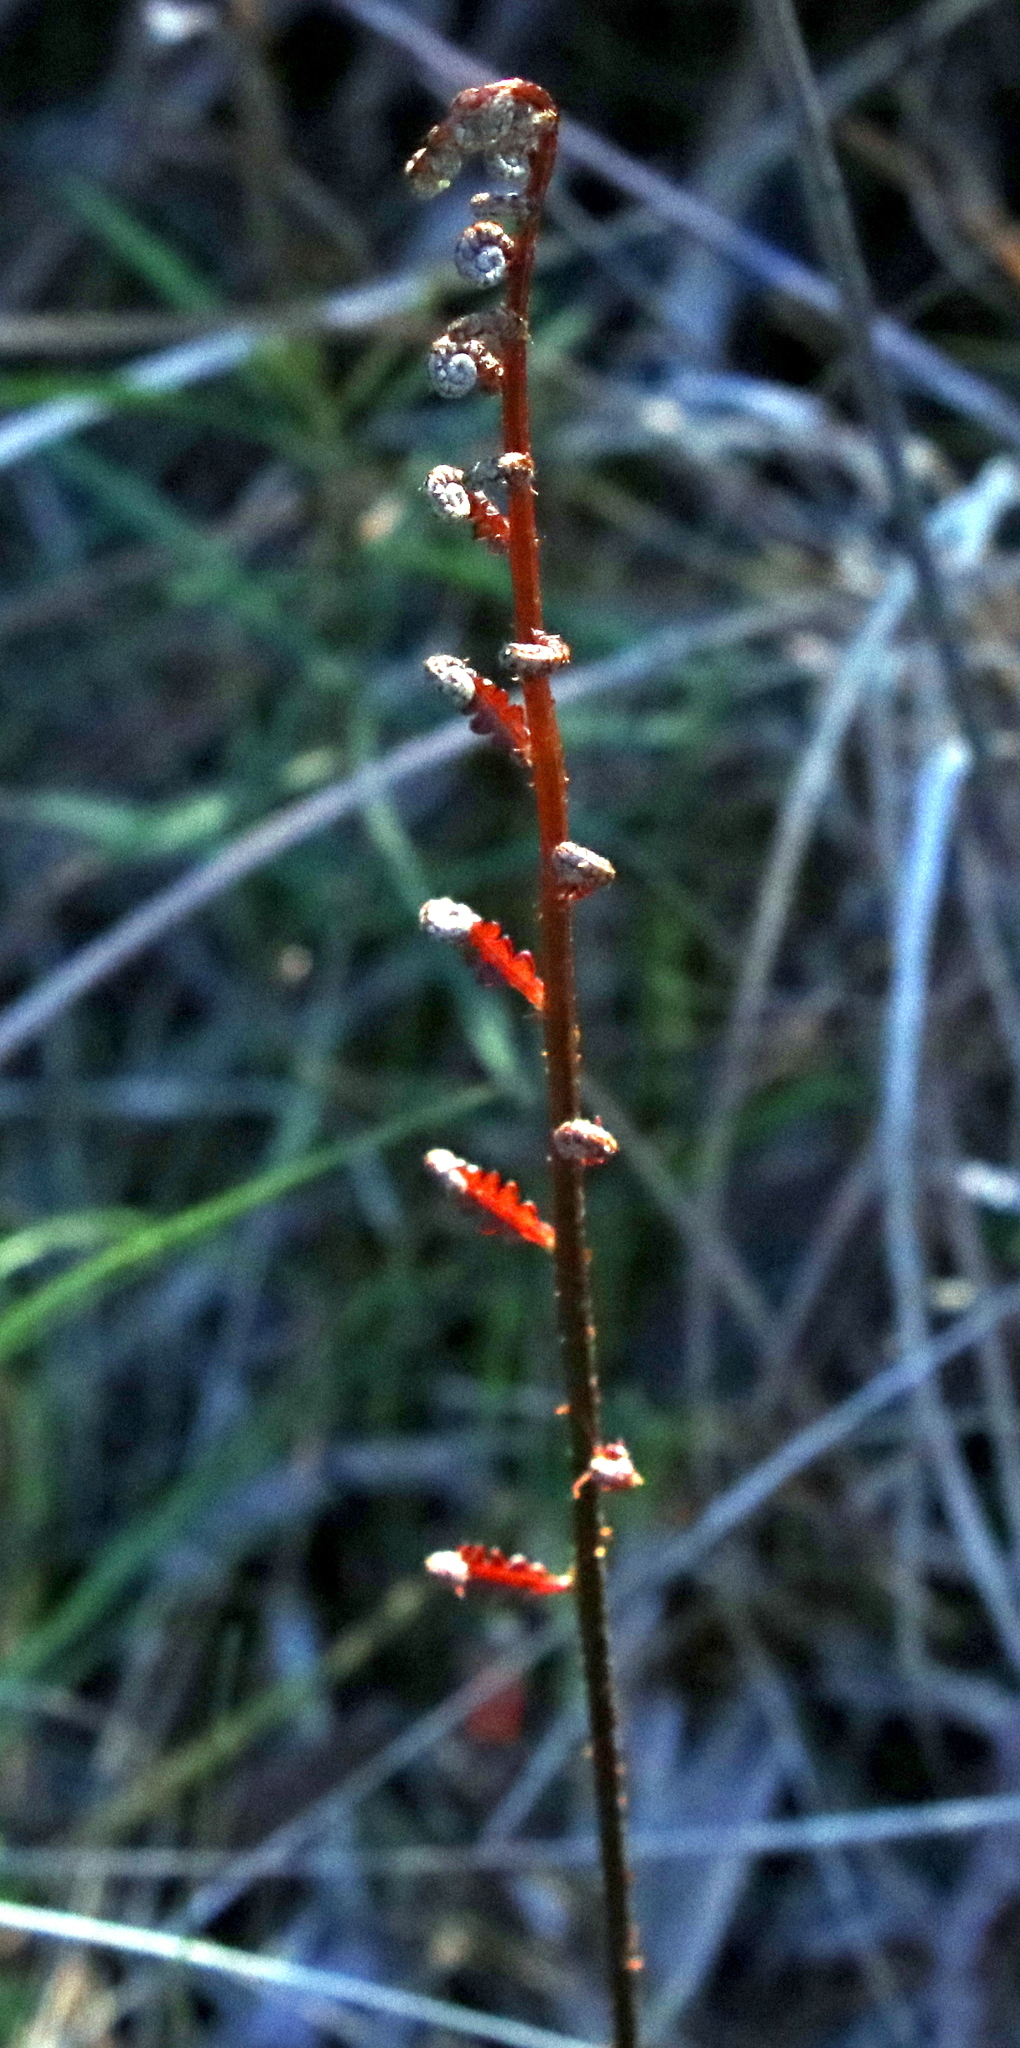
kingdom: Plantae
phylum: Tracheophyta
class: Polypodiopsida
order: Polypodiales
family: Blechnaceae
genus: Anchistea
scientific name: Anchistea virginica
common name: Virginia chain fern
